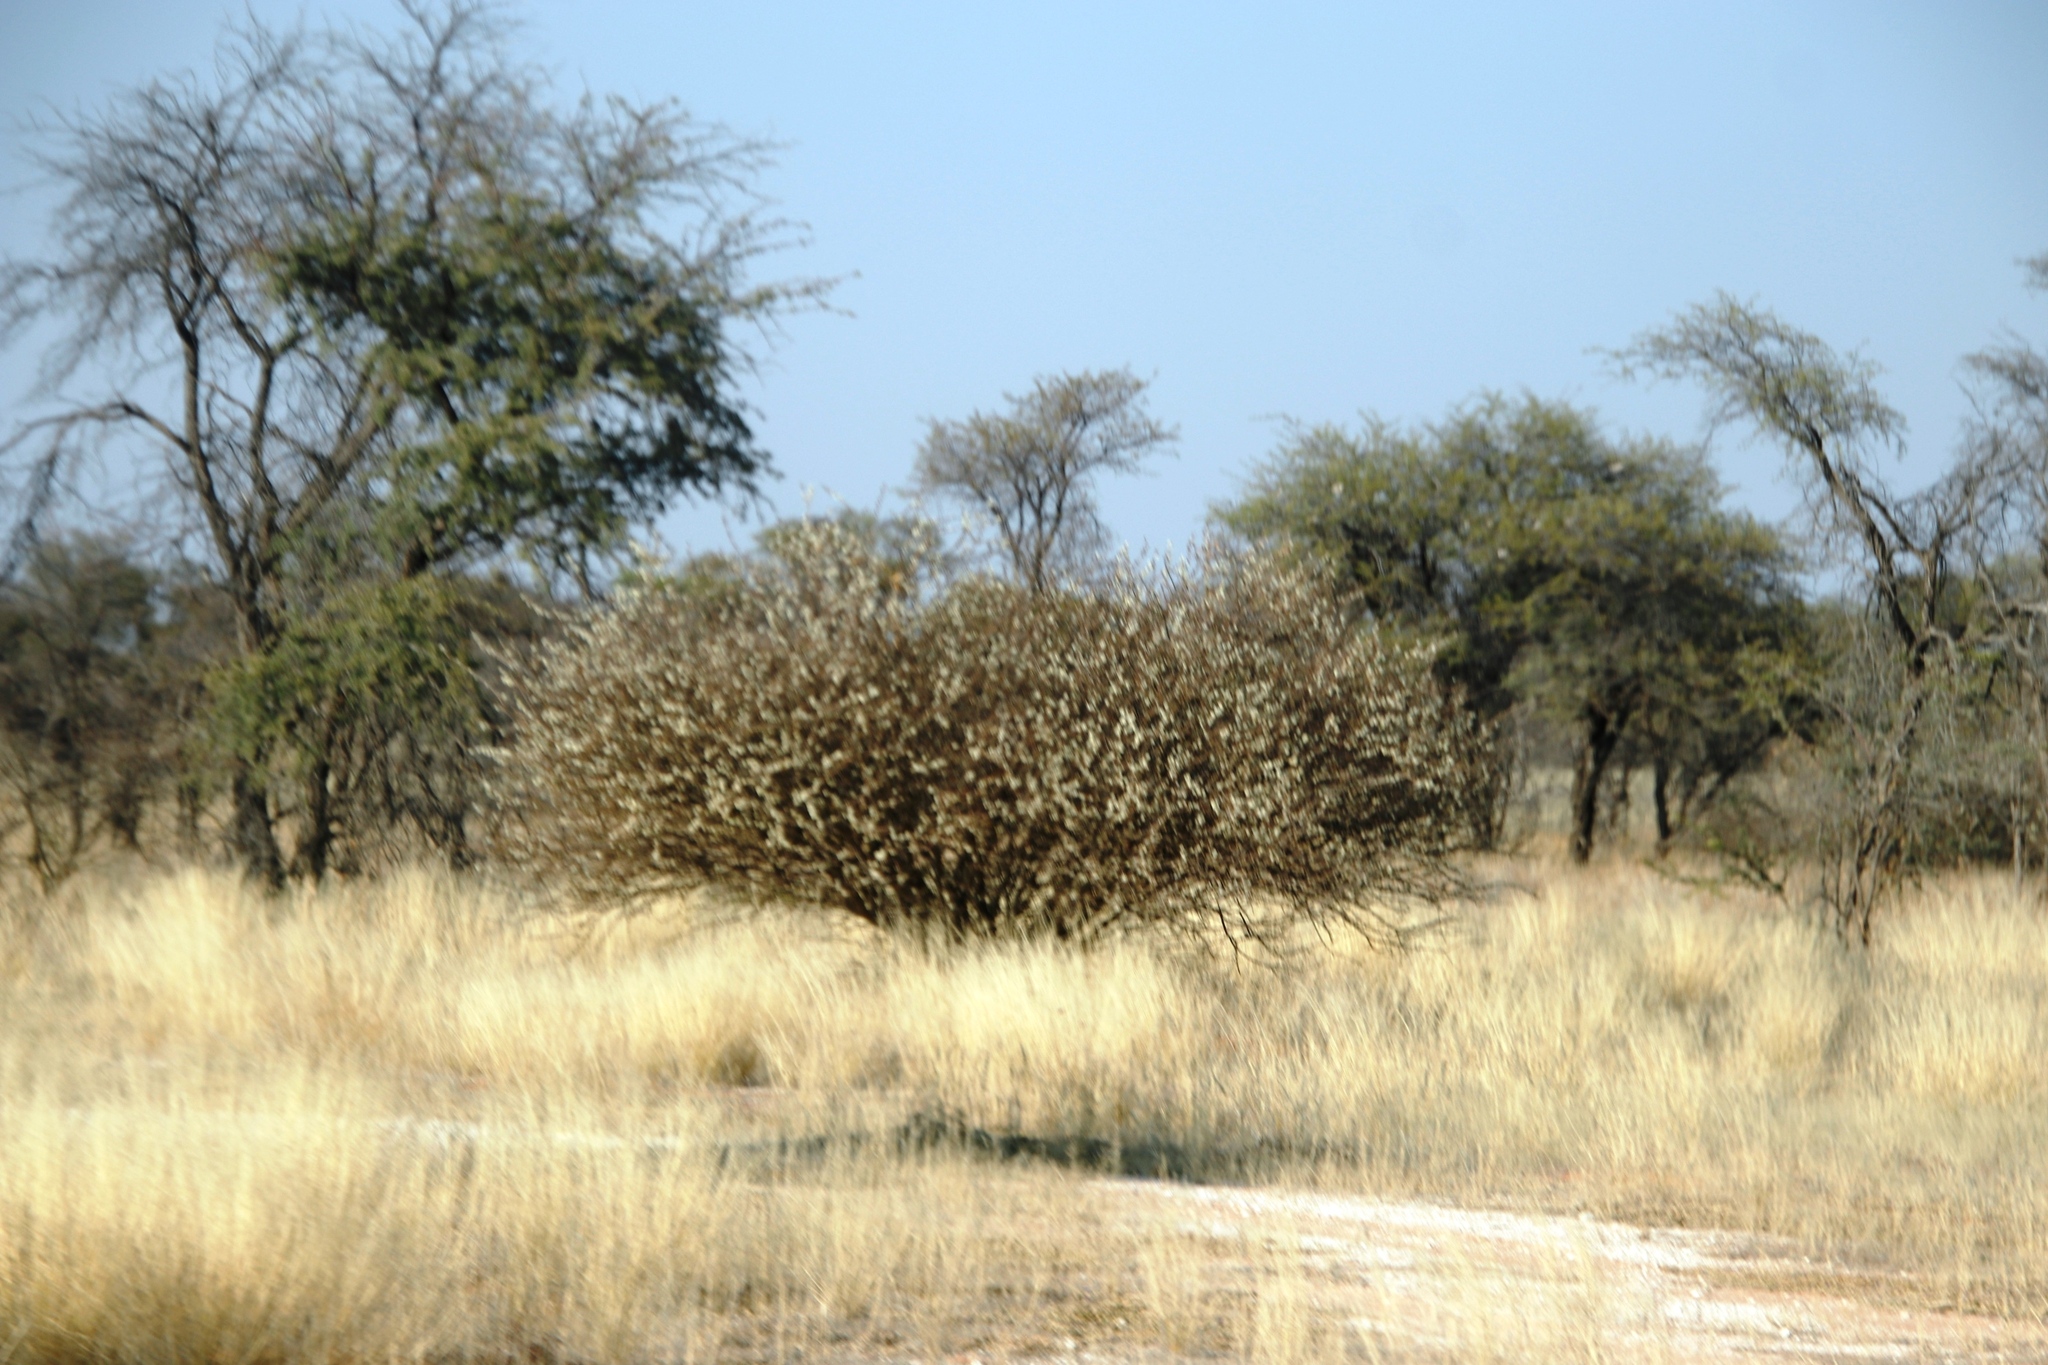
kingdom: Plantae
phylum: Tracheophyta
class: Magnoliopsida
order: Fabales
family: Fabaceae
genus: Senegalia
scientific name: Senegalia mellifera
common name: Hookthorn
